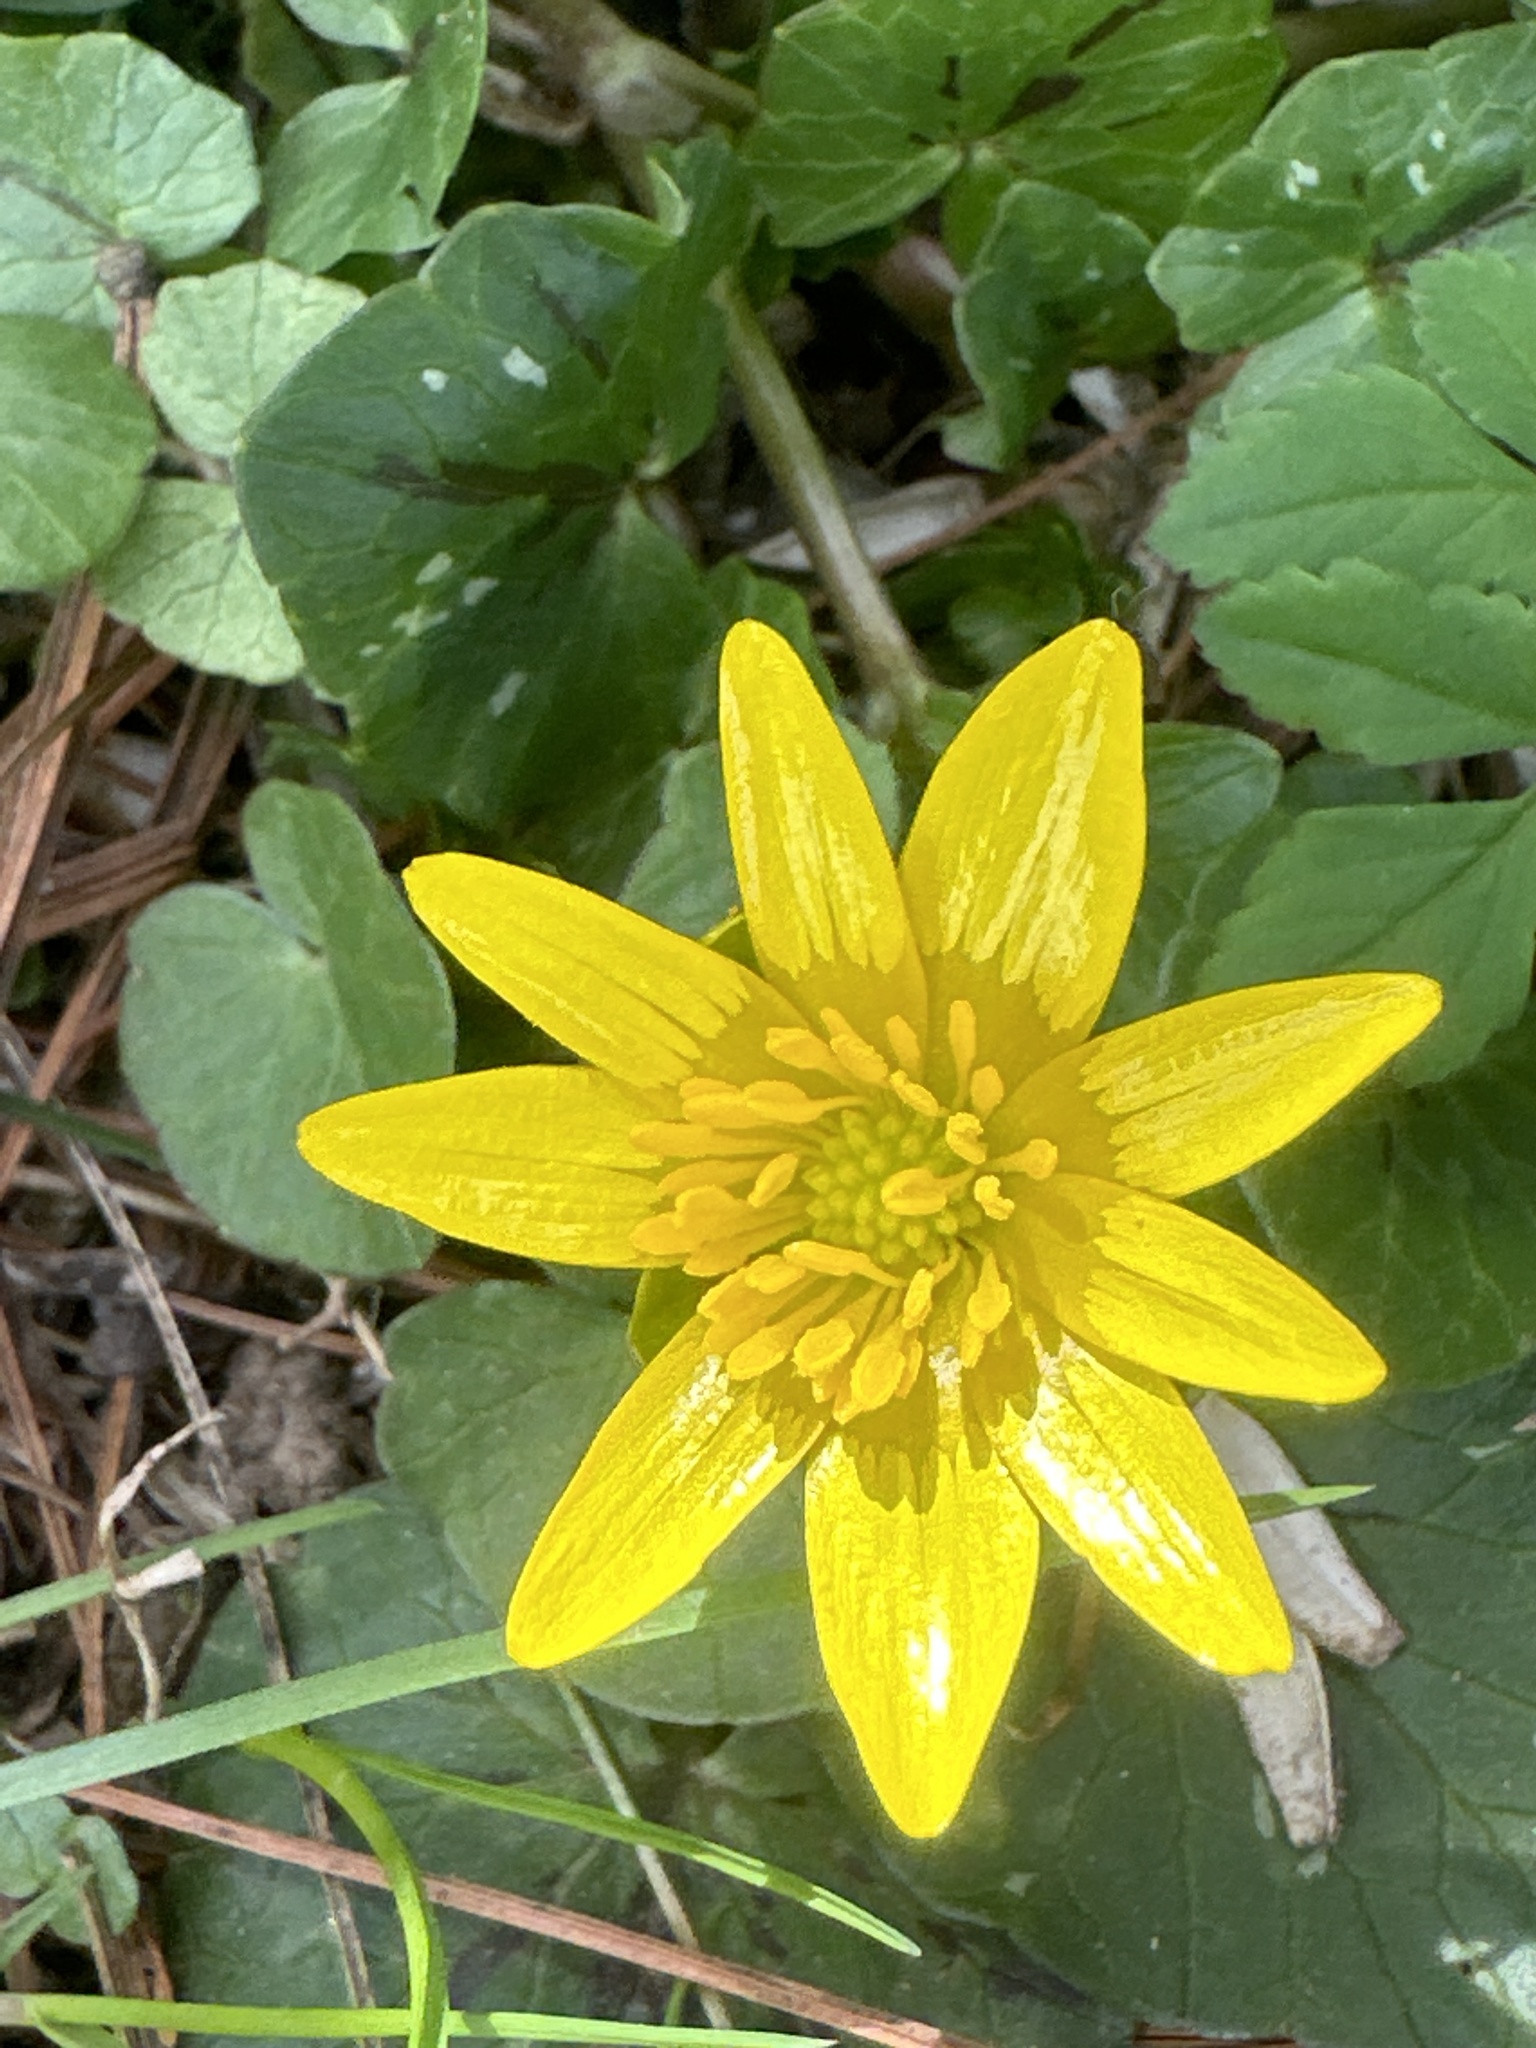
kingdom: Plantae
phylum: Tracheophyta
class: Magnoliopsida
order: Ranunculales
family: Ranunculaceae
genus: Ficaria
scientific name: Ficaria verna
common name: Lesser celandine
